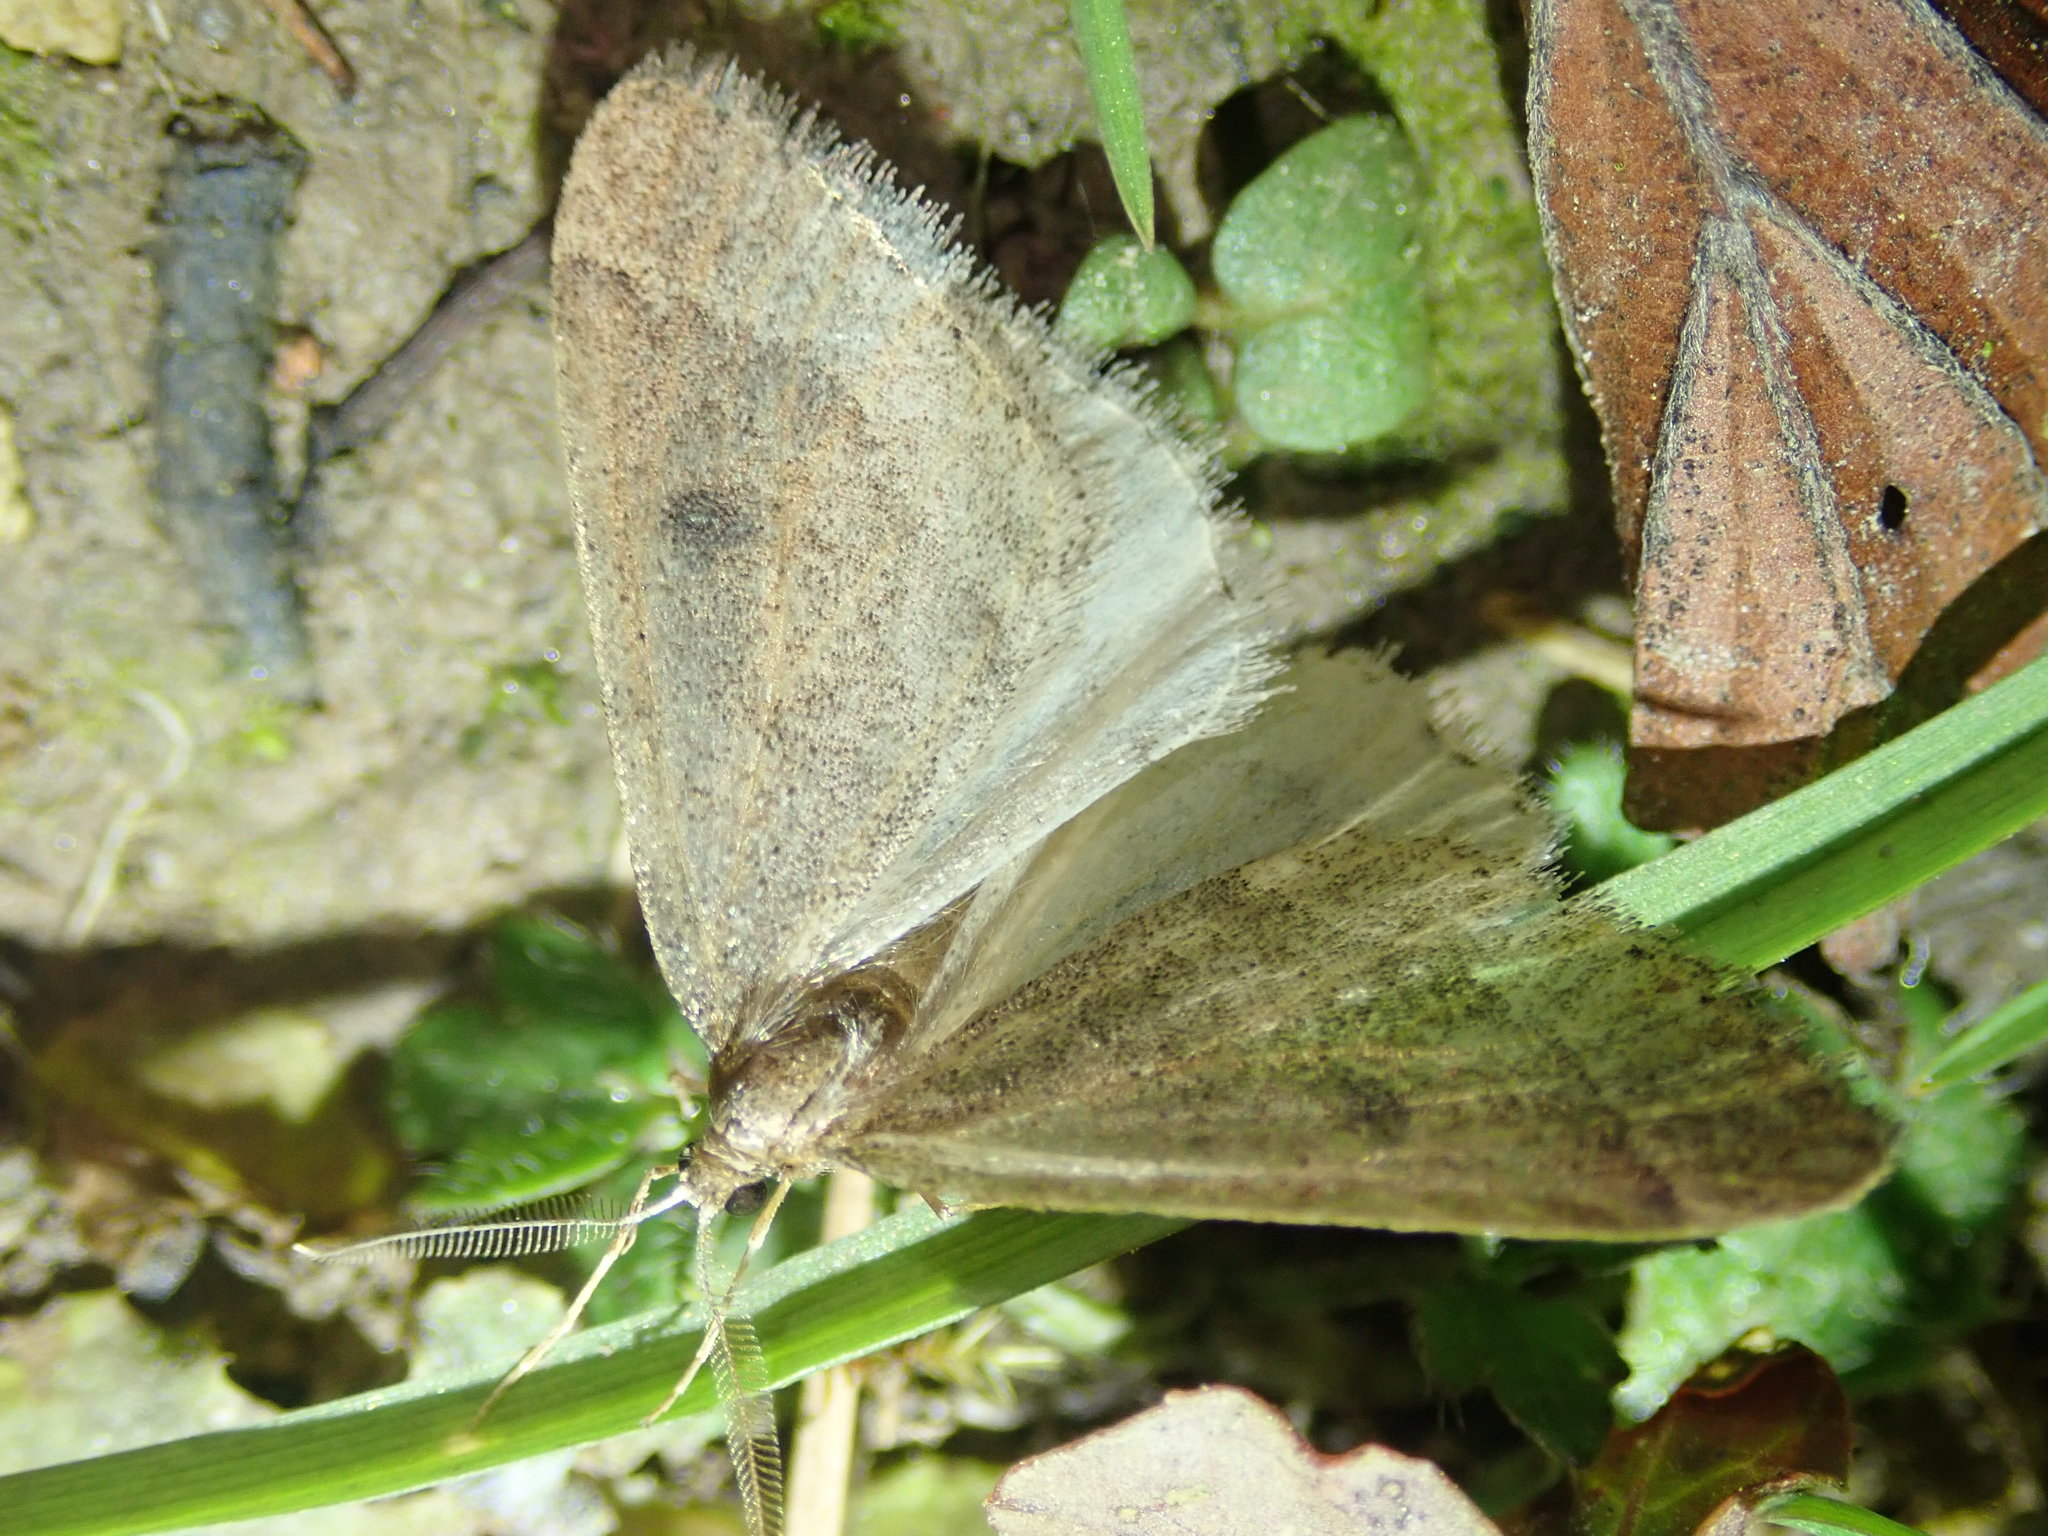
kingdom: Animalia
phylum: Arthropoda
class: Insecta
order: Lepidoptera
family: Geometridae
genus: Theria
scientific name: Theria primaria
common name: Early moth
